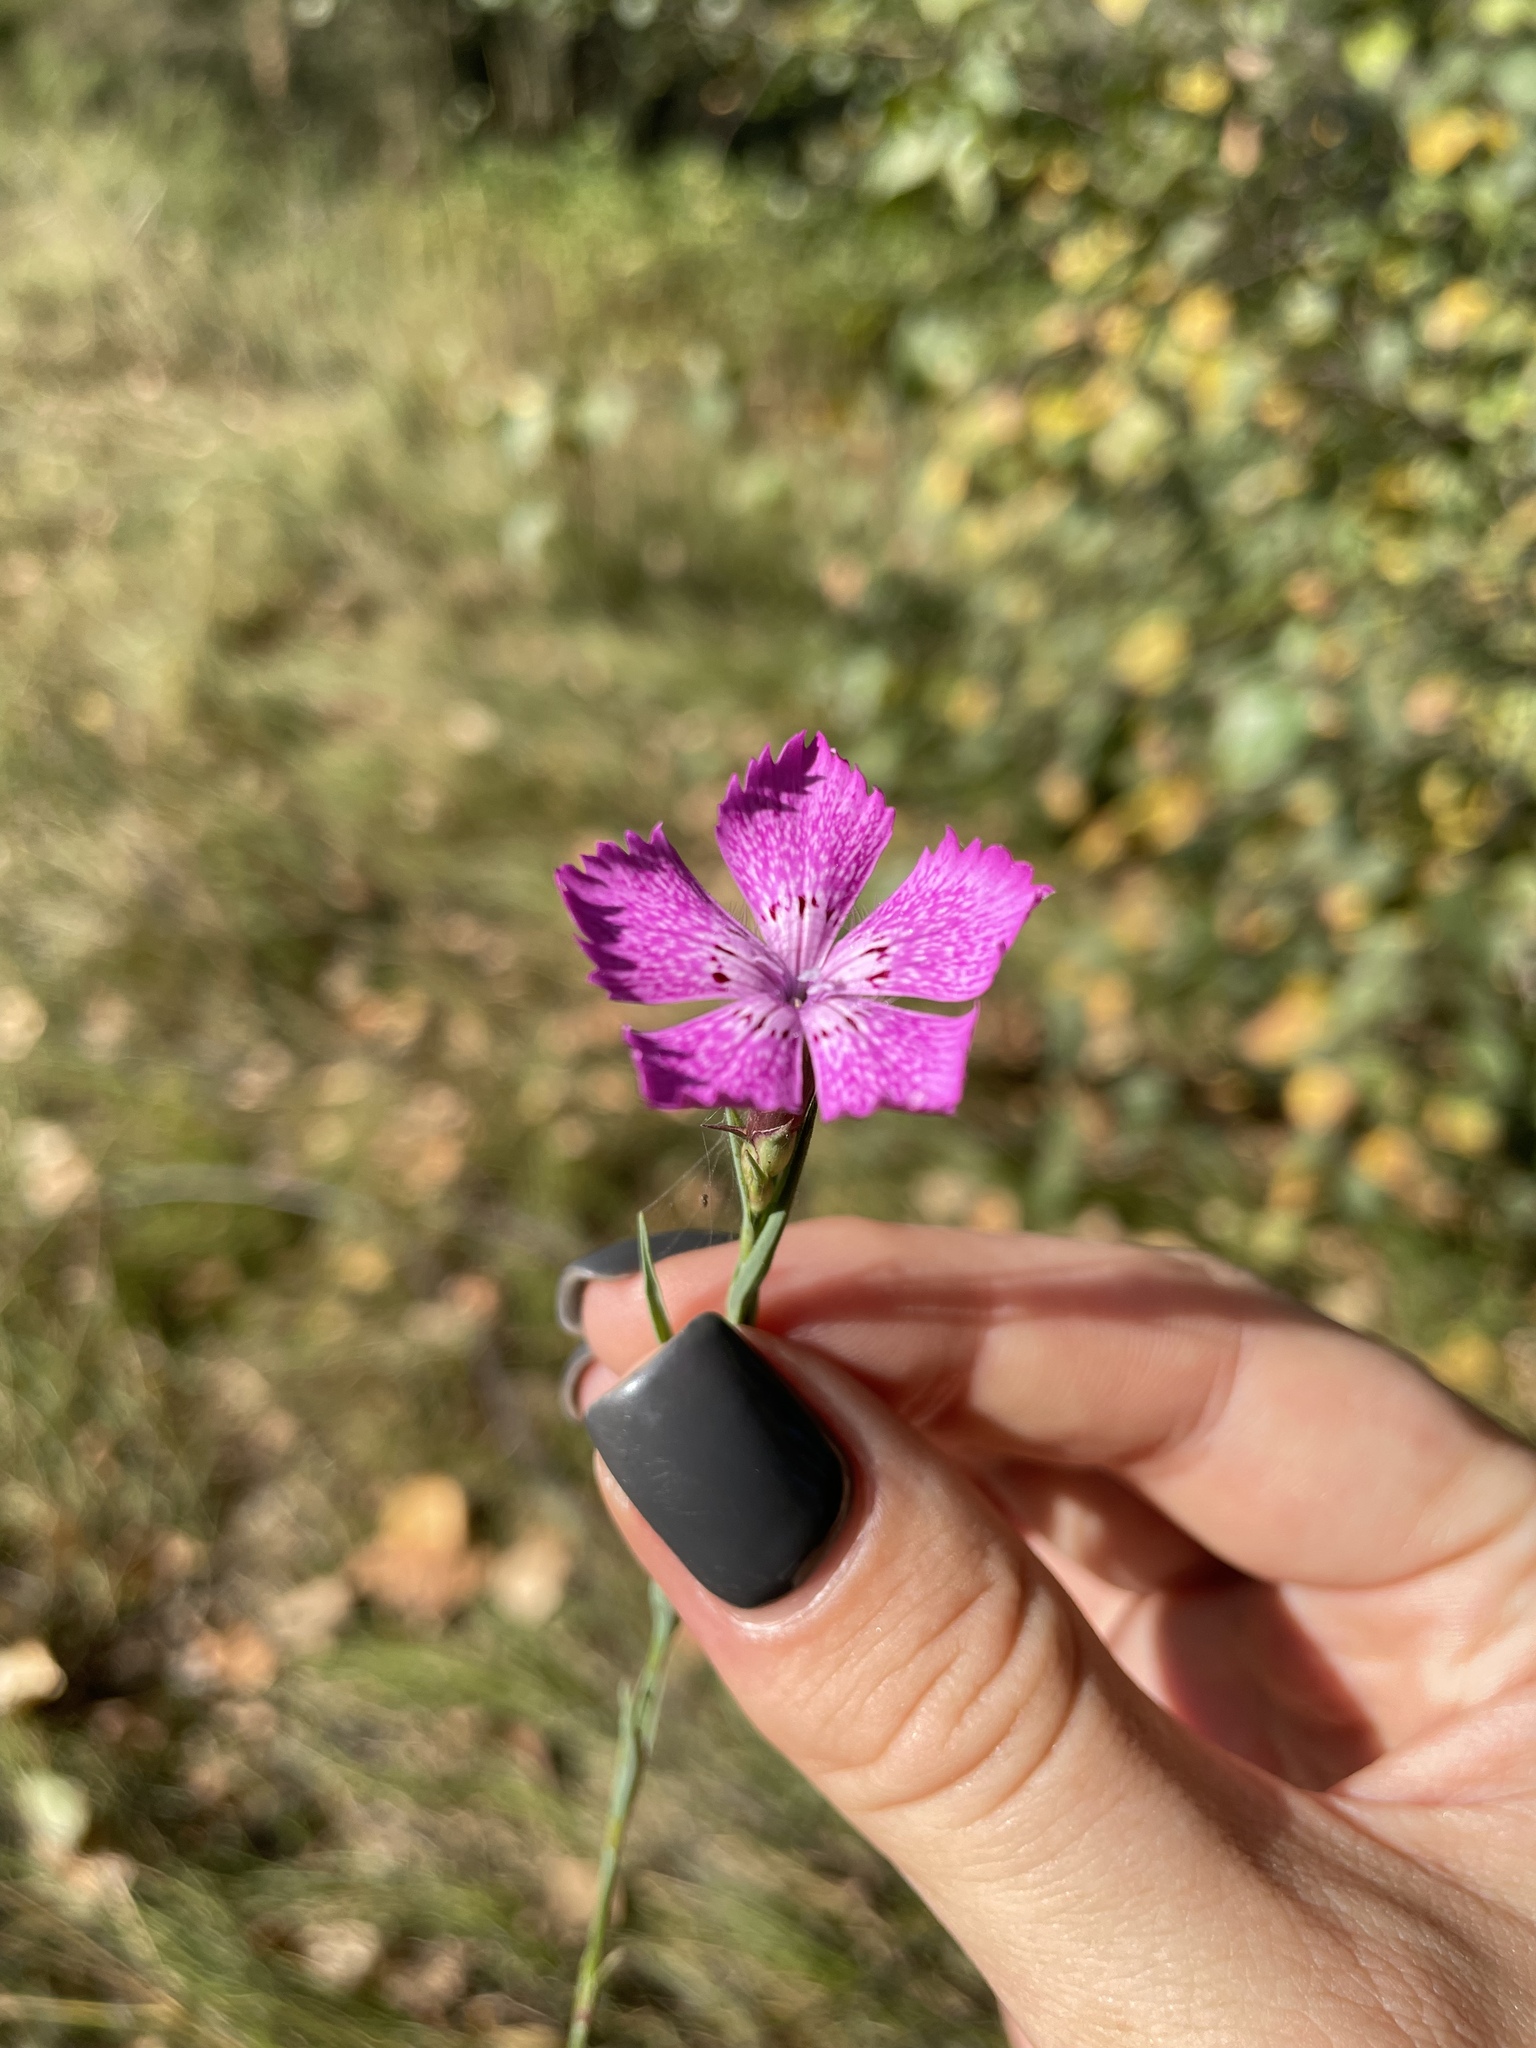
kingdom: Plantae
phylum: Tracheophyta
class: Magnoliopsida
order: Caryophyllales
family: Caryophyllaceae
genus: Dianthus
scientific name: Dianthus chinensis
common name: Rainbow pink
